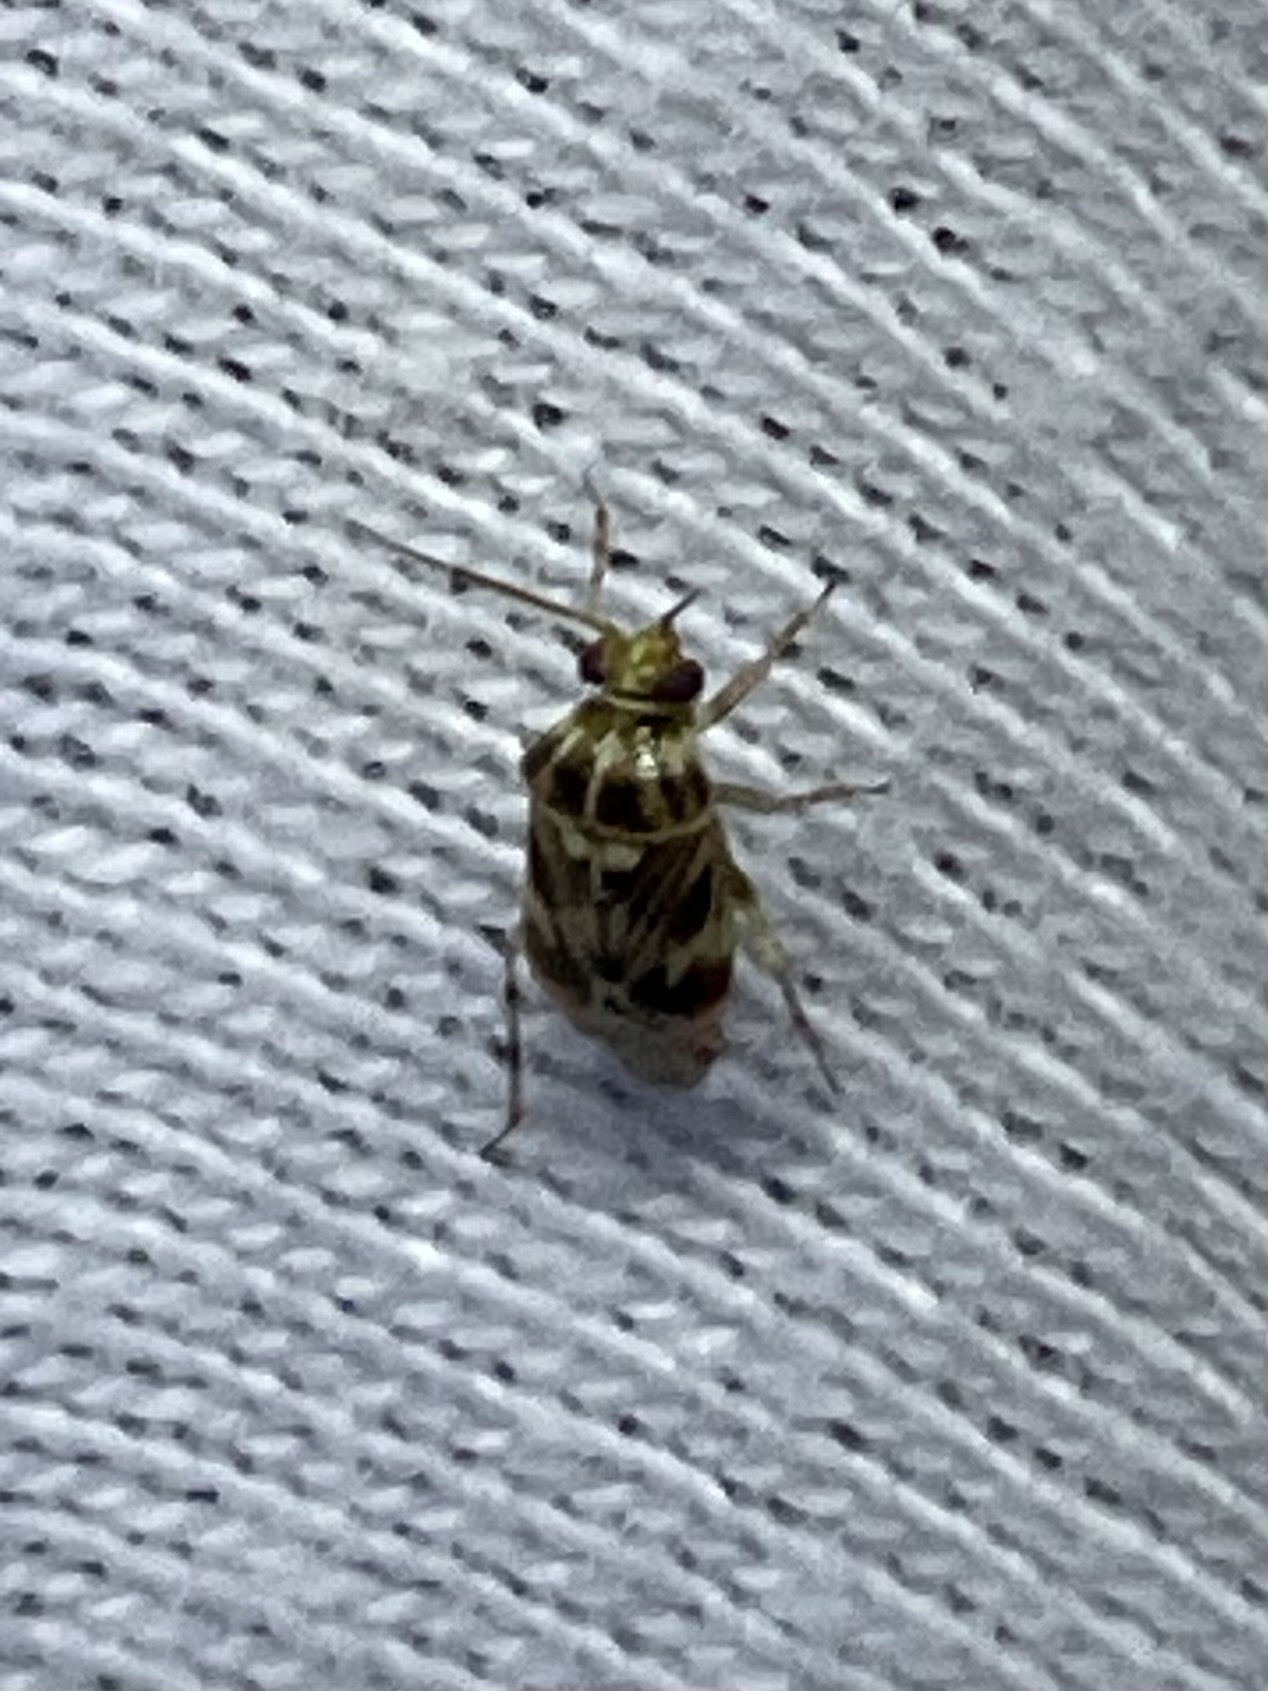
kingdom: Animalia
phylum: Arthropoda
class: Insecta
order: Hemiptera
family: Miridae
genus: Tropidosteptes
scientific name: Tropidosteptes quercicola
